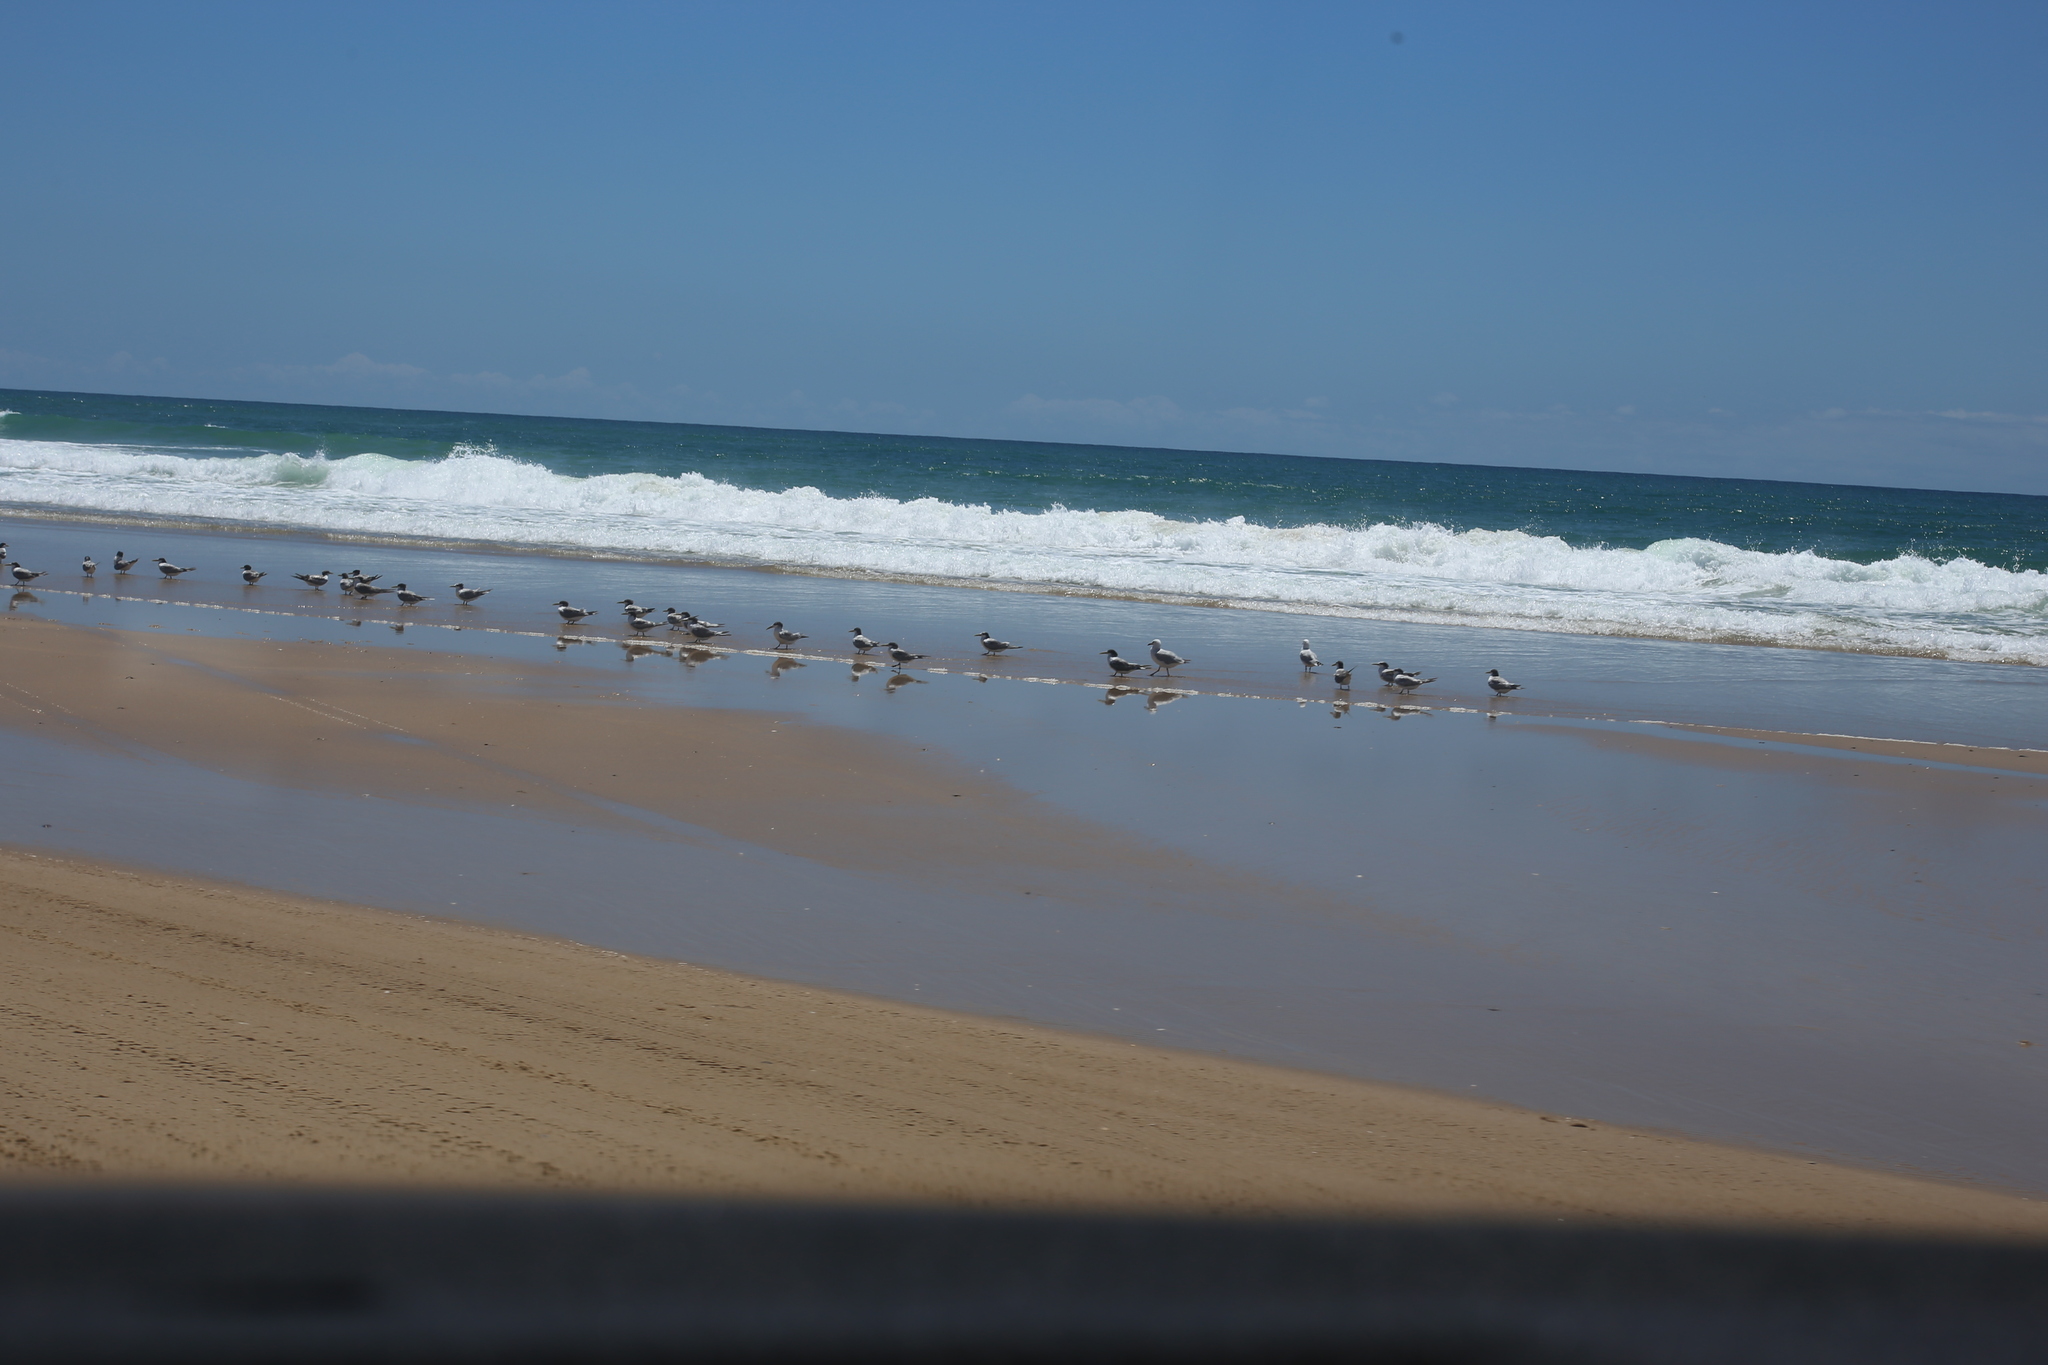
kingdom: Animalia
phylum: Chordata
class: Aves
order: Charadriiformes
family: Laridae
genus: Thalasseus
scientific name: Thalasseus bergii
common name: Greater crested tern
